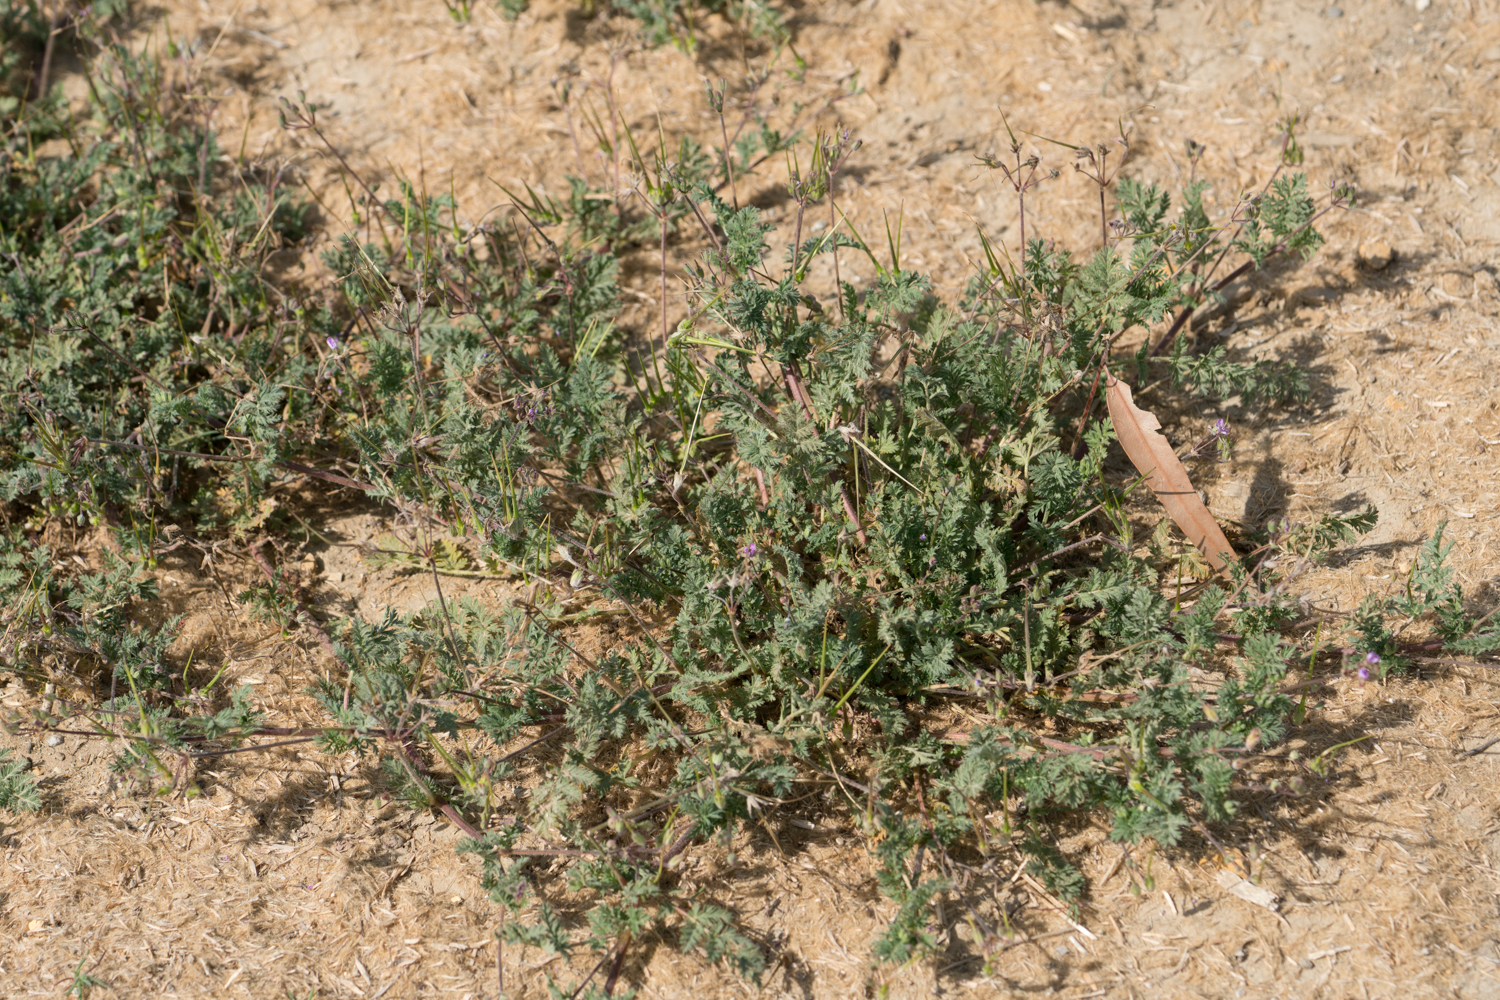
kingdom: Plantae
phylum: Tracheophyta
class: Magnoliopsida
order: Geraniales
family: Geraniaceae
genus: Erodium
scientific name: Erodium cicutarium
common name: Common stork's-bill
